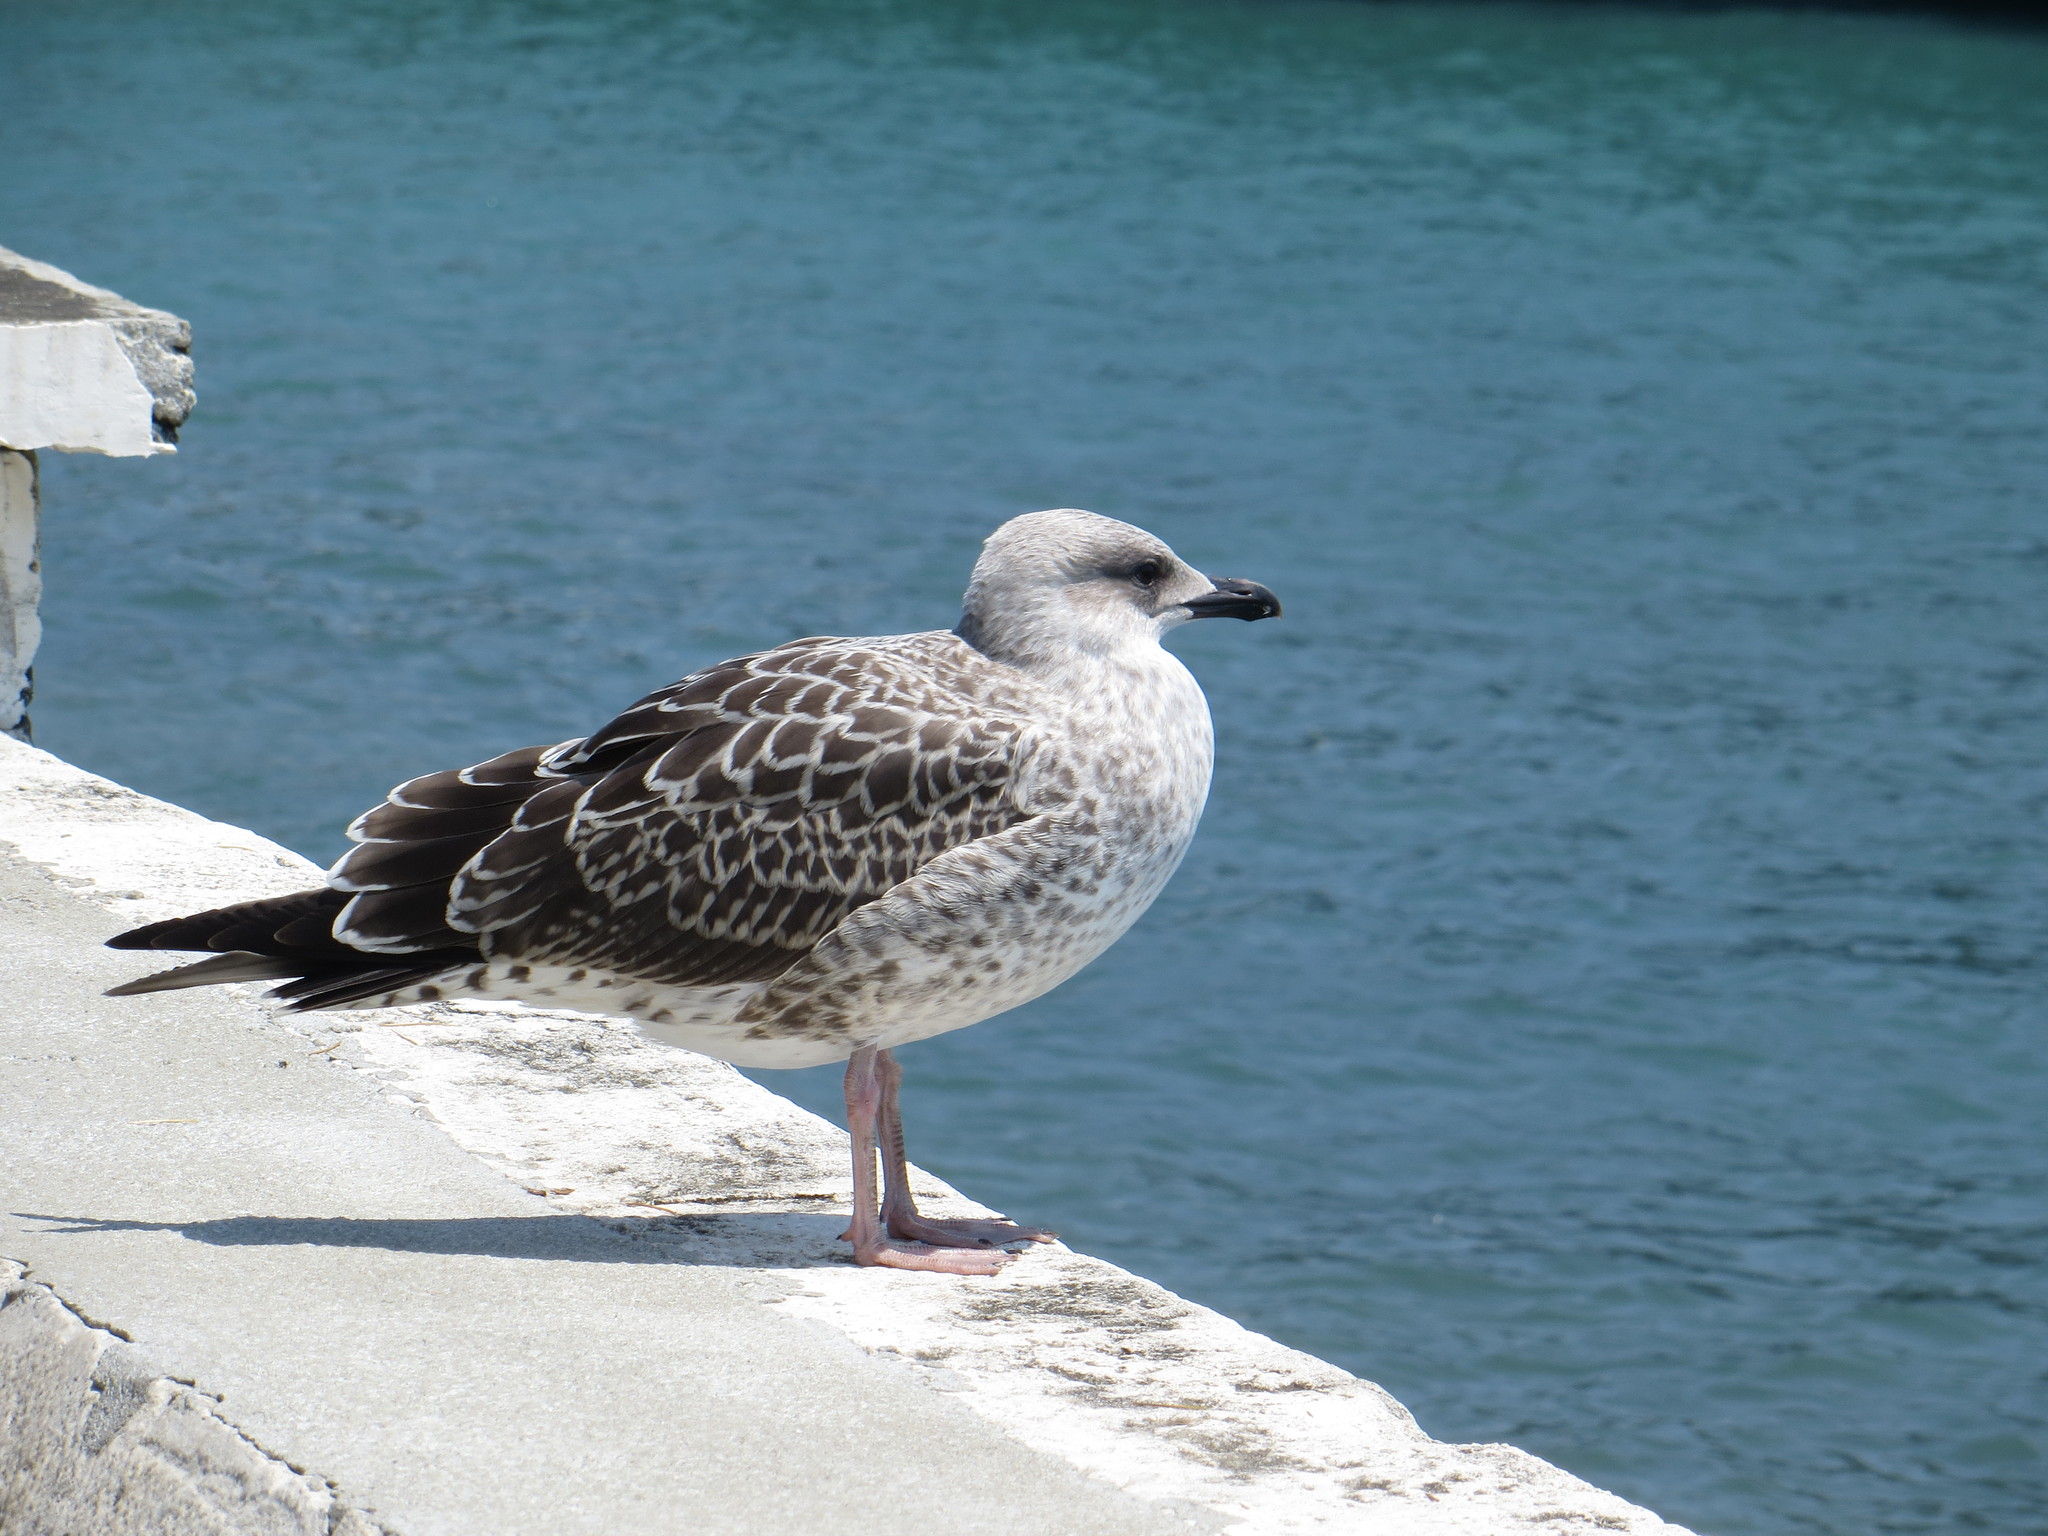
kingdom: Animalia
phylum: Chordata
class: Aves
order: Charadriiformes
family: Laridae
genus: Larus
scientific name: Larus michahellis
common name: Yellow-legged gull
